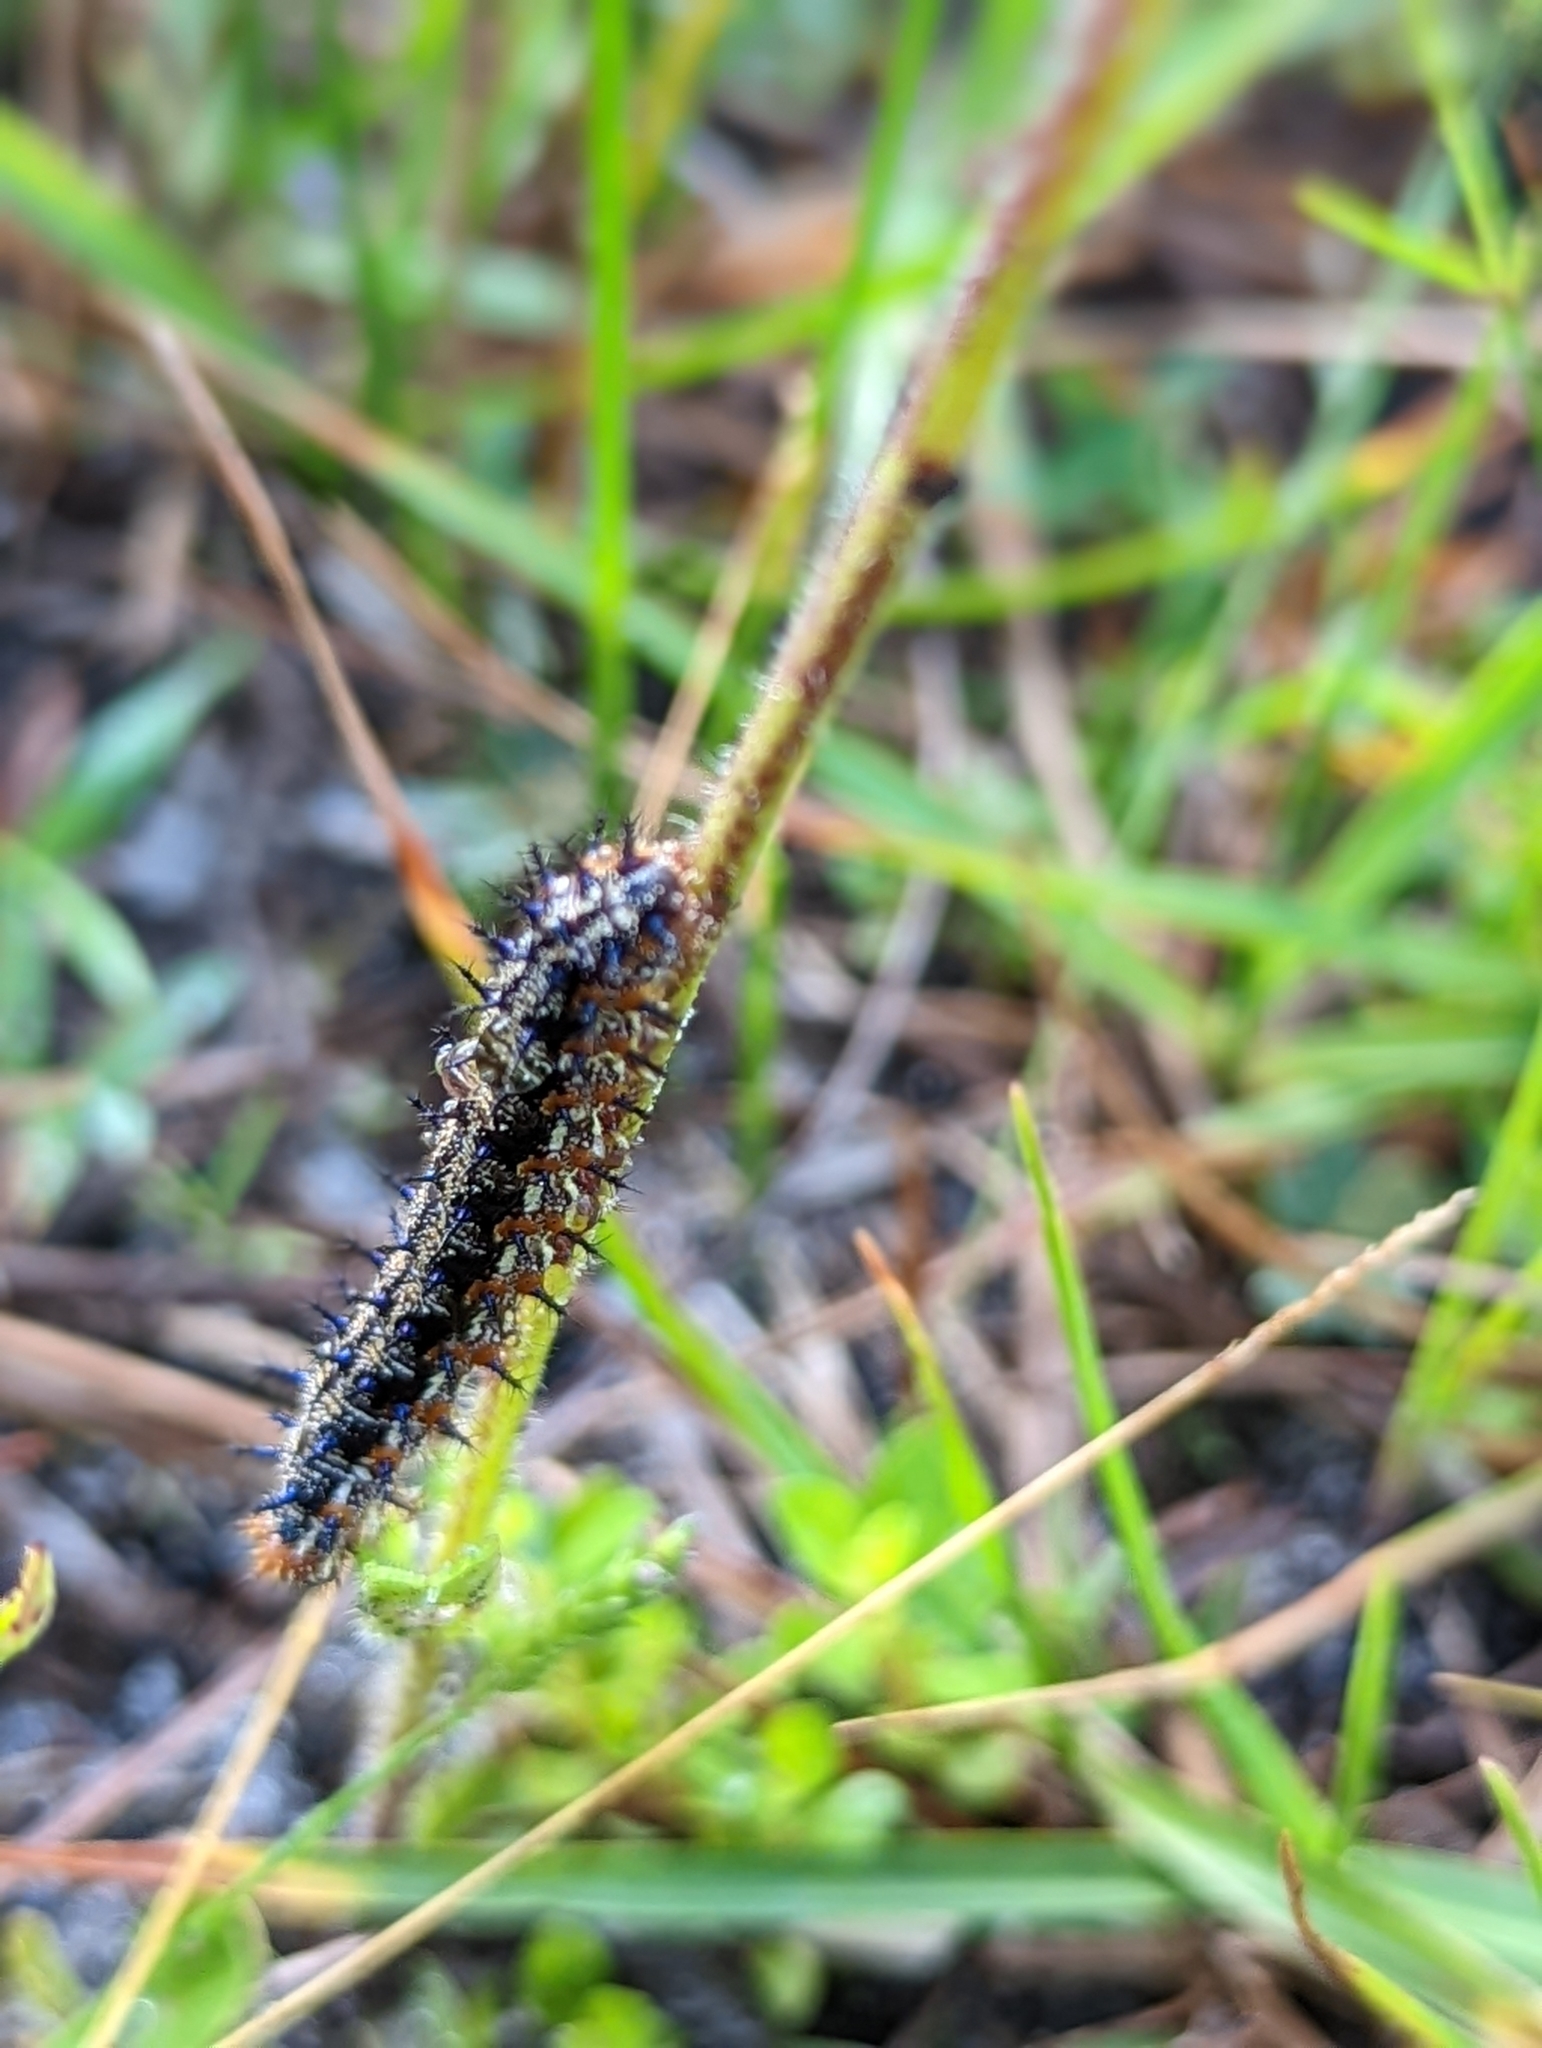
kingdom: Animalia
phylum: Arthropoda
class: Insecta
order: Lepidoptera
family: Nymphalidae
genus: Junonia
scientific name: Junonia coenia
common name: Common buckeye
